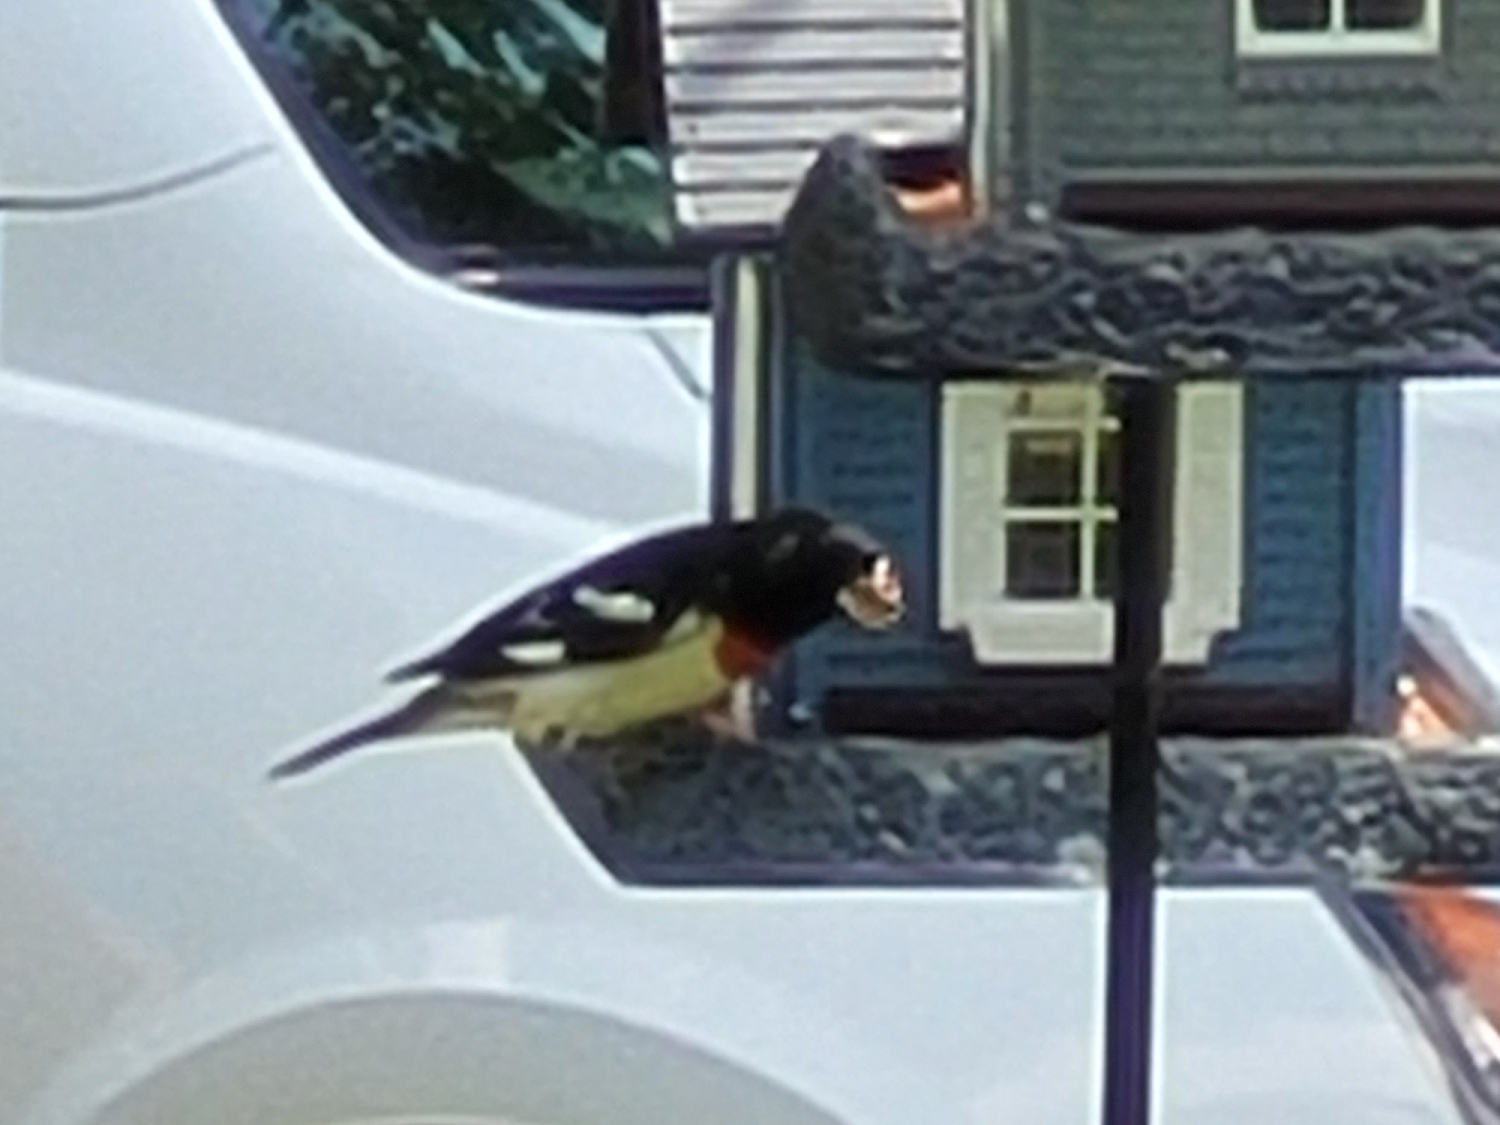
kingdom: Animalia
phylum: Chordata
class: Aves
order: Passeriformes
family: Cardinalidae
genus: Pheucticus
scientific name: Pheucticus ludovicianus
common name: Rose-breasted grosbeak
